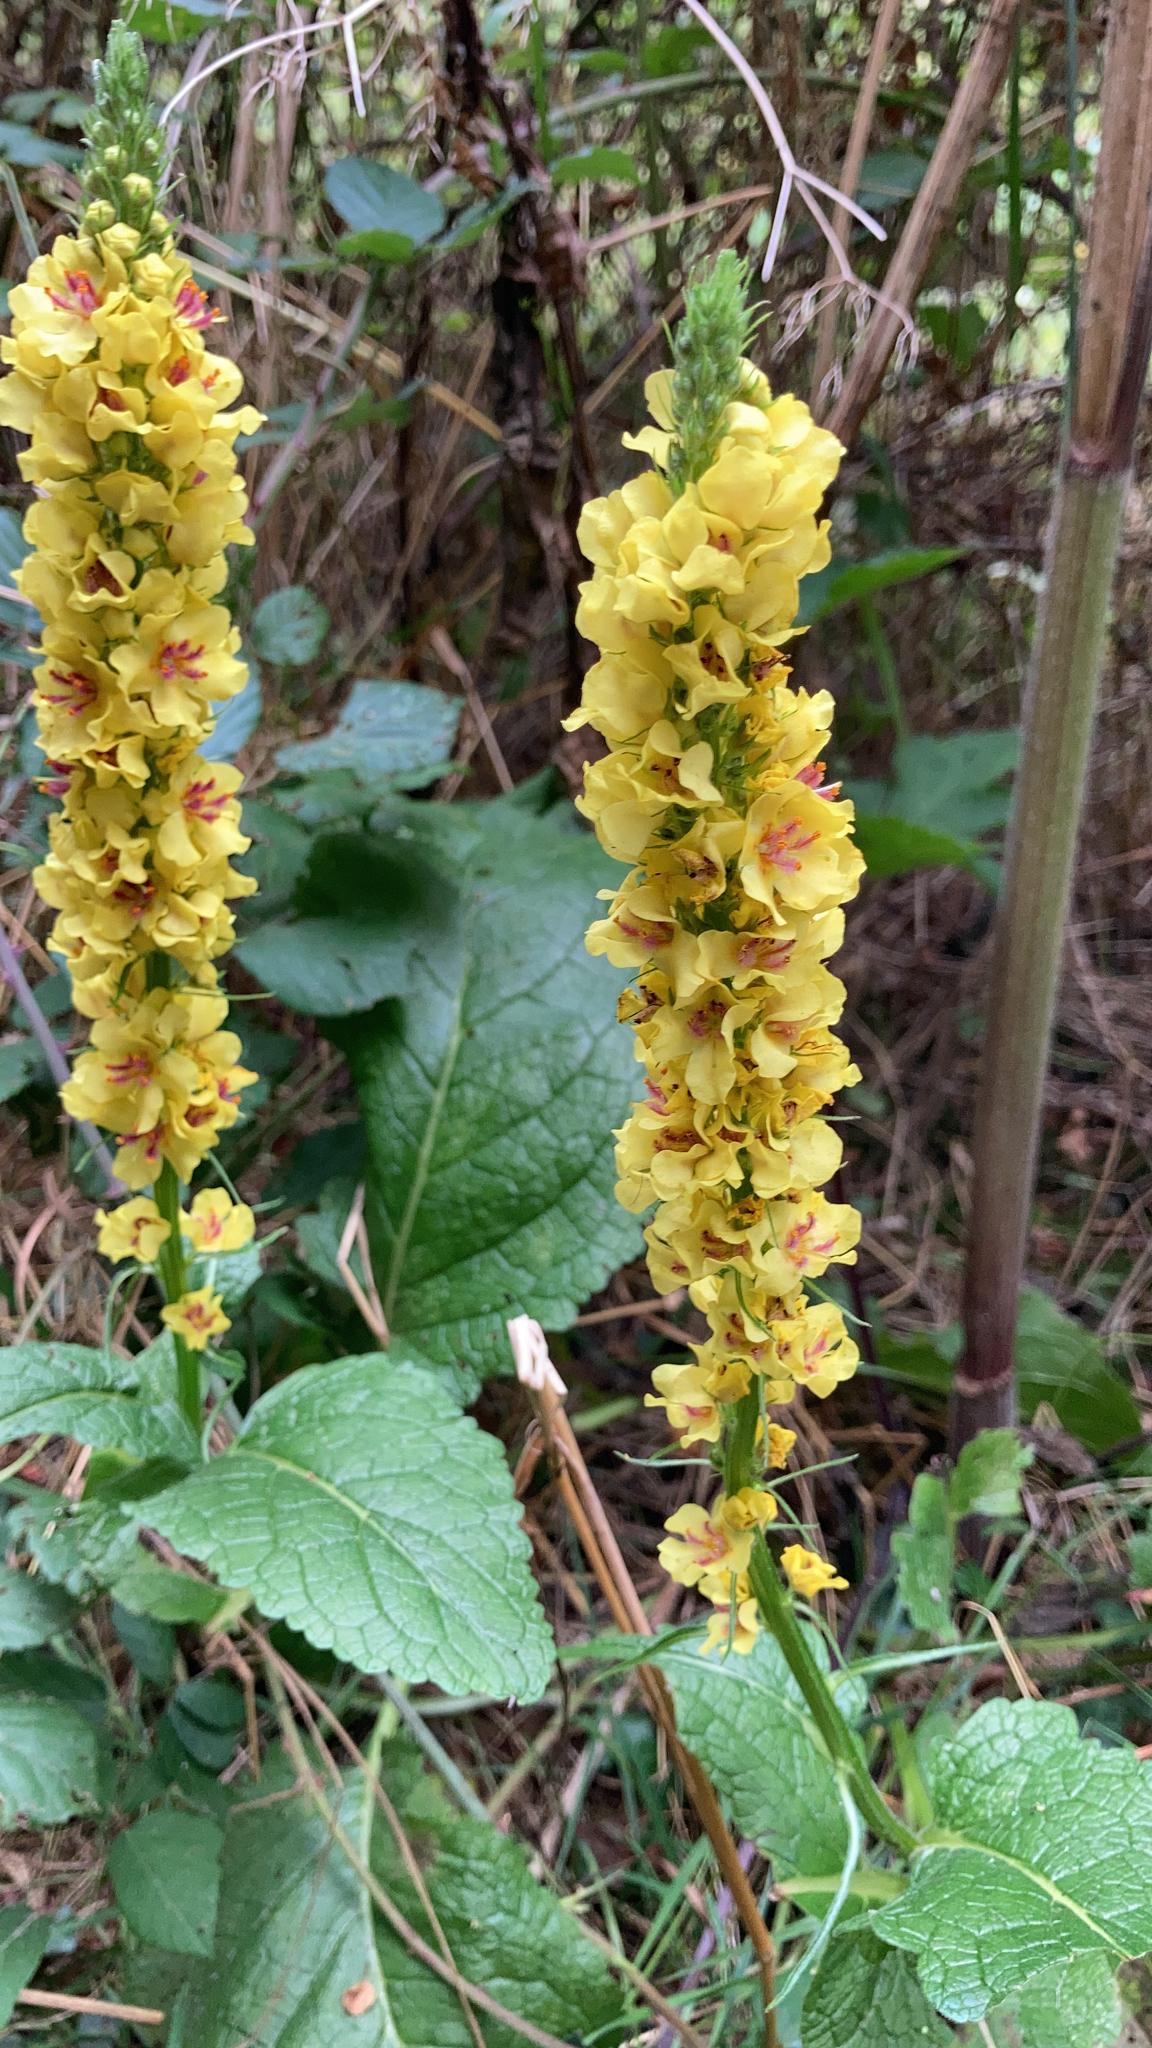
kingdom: Plantae
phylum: Tracheophyta
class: Magnoliopsida
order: Lamiales
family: Scrophulariaceae
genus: Verbascum
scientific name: Verbascum nigrum
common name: Dark mullein
